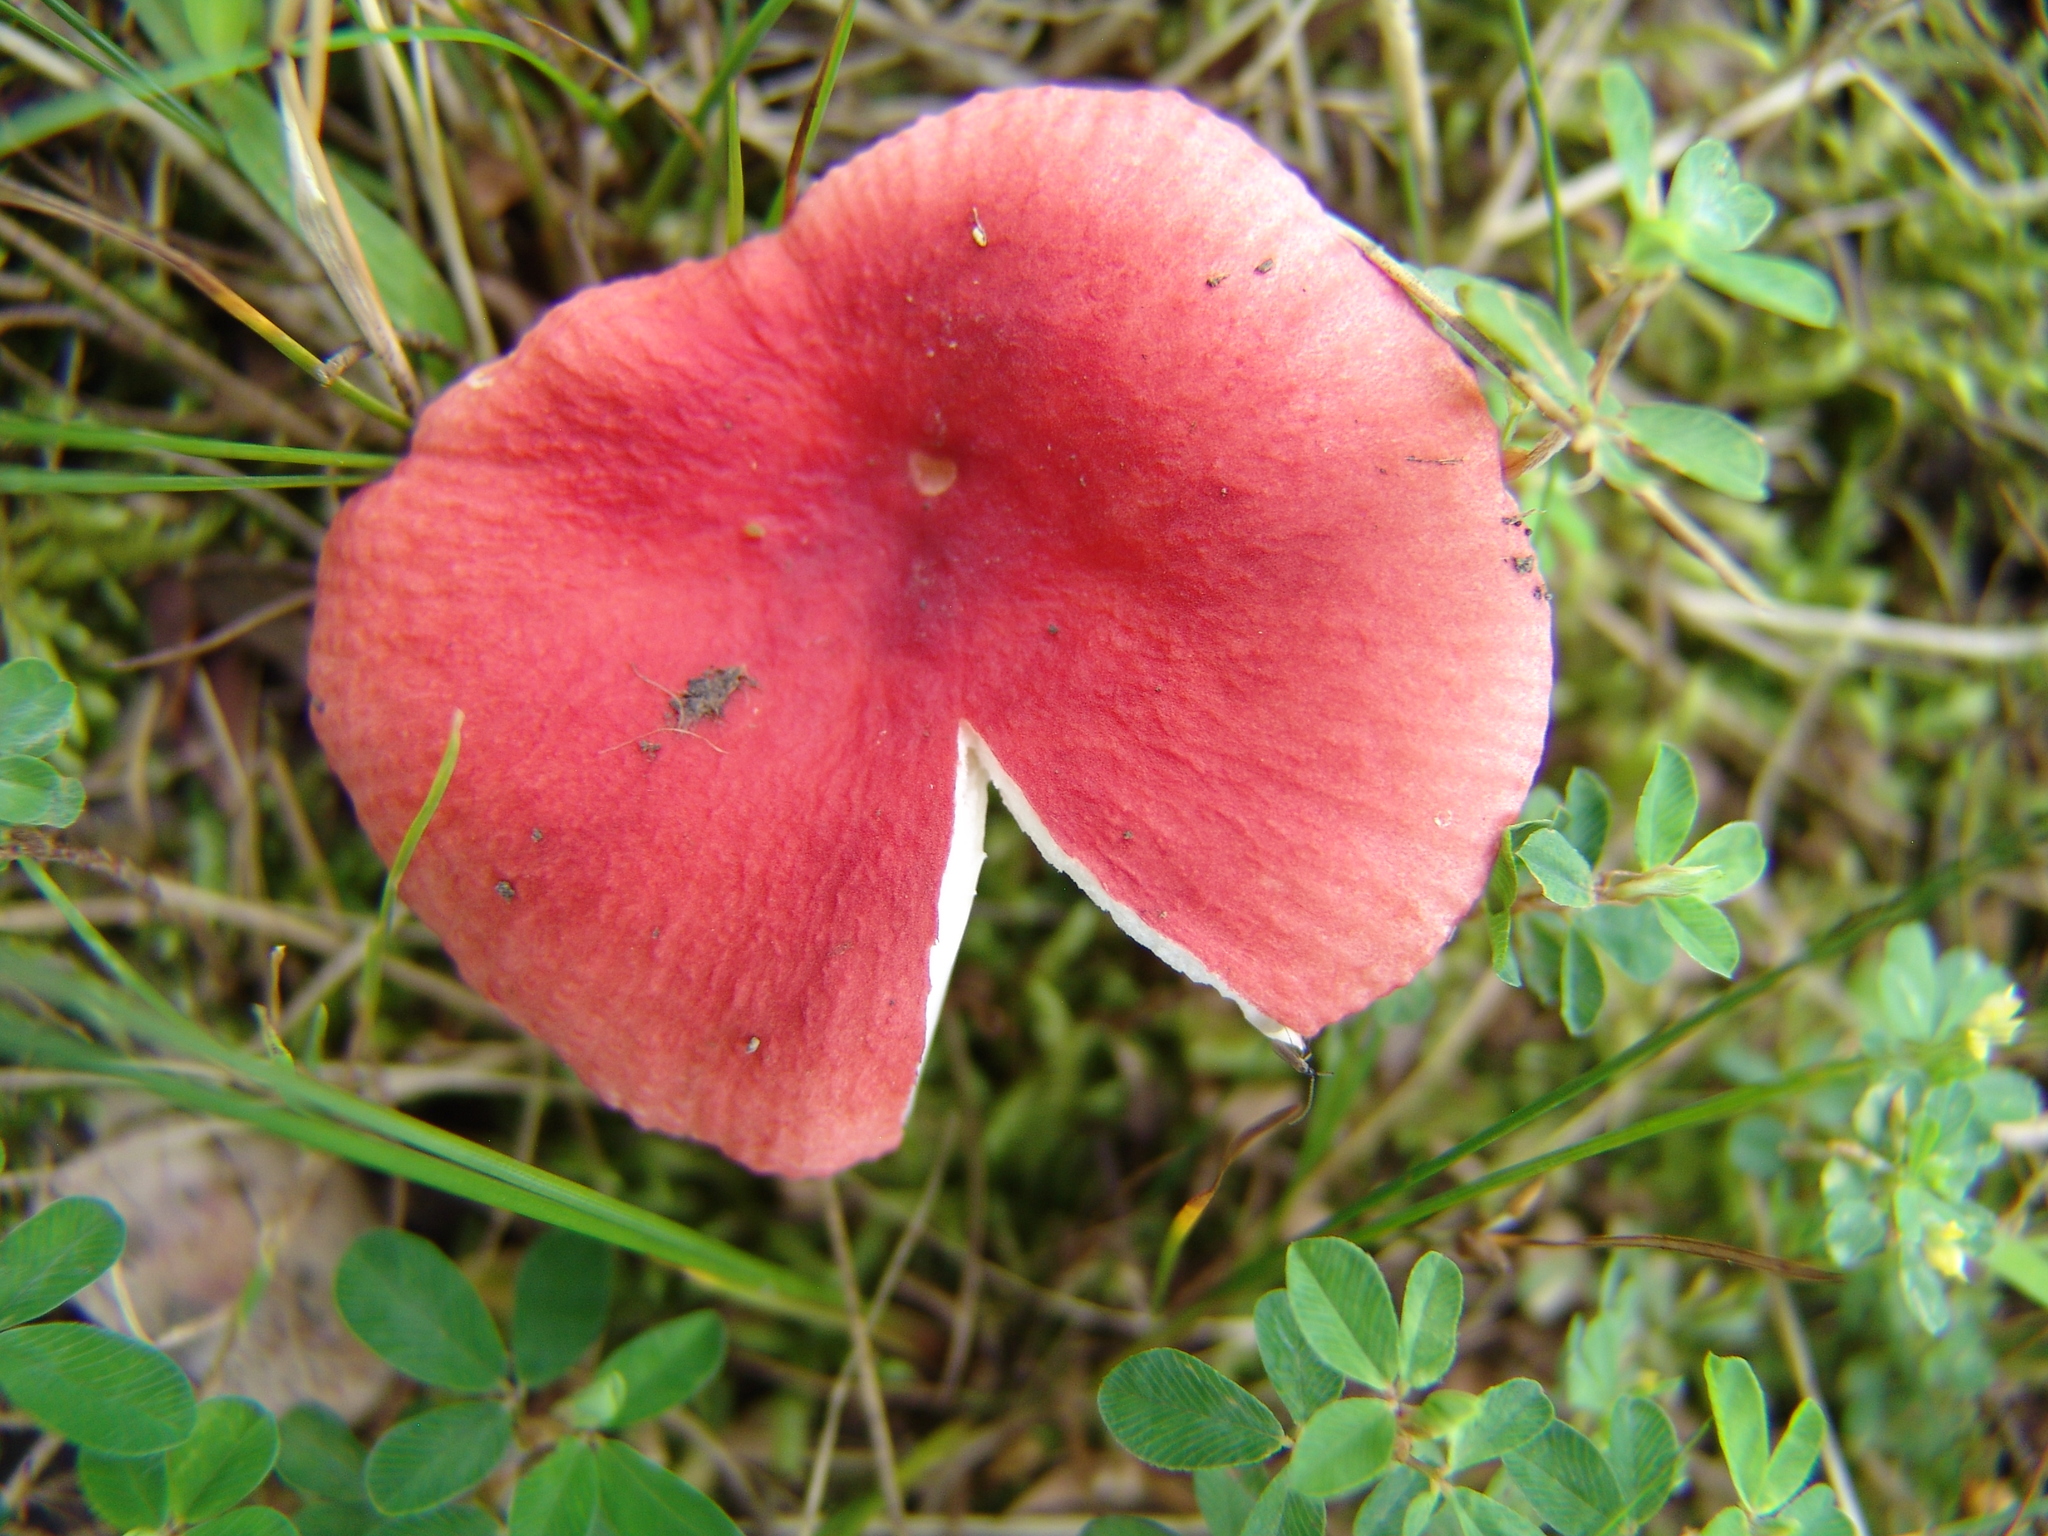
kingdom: Fungi
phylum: Basidiomycota
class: Agaricomycetes
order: Russulales
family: Russulaceae
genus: Russula
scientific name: Russula
